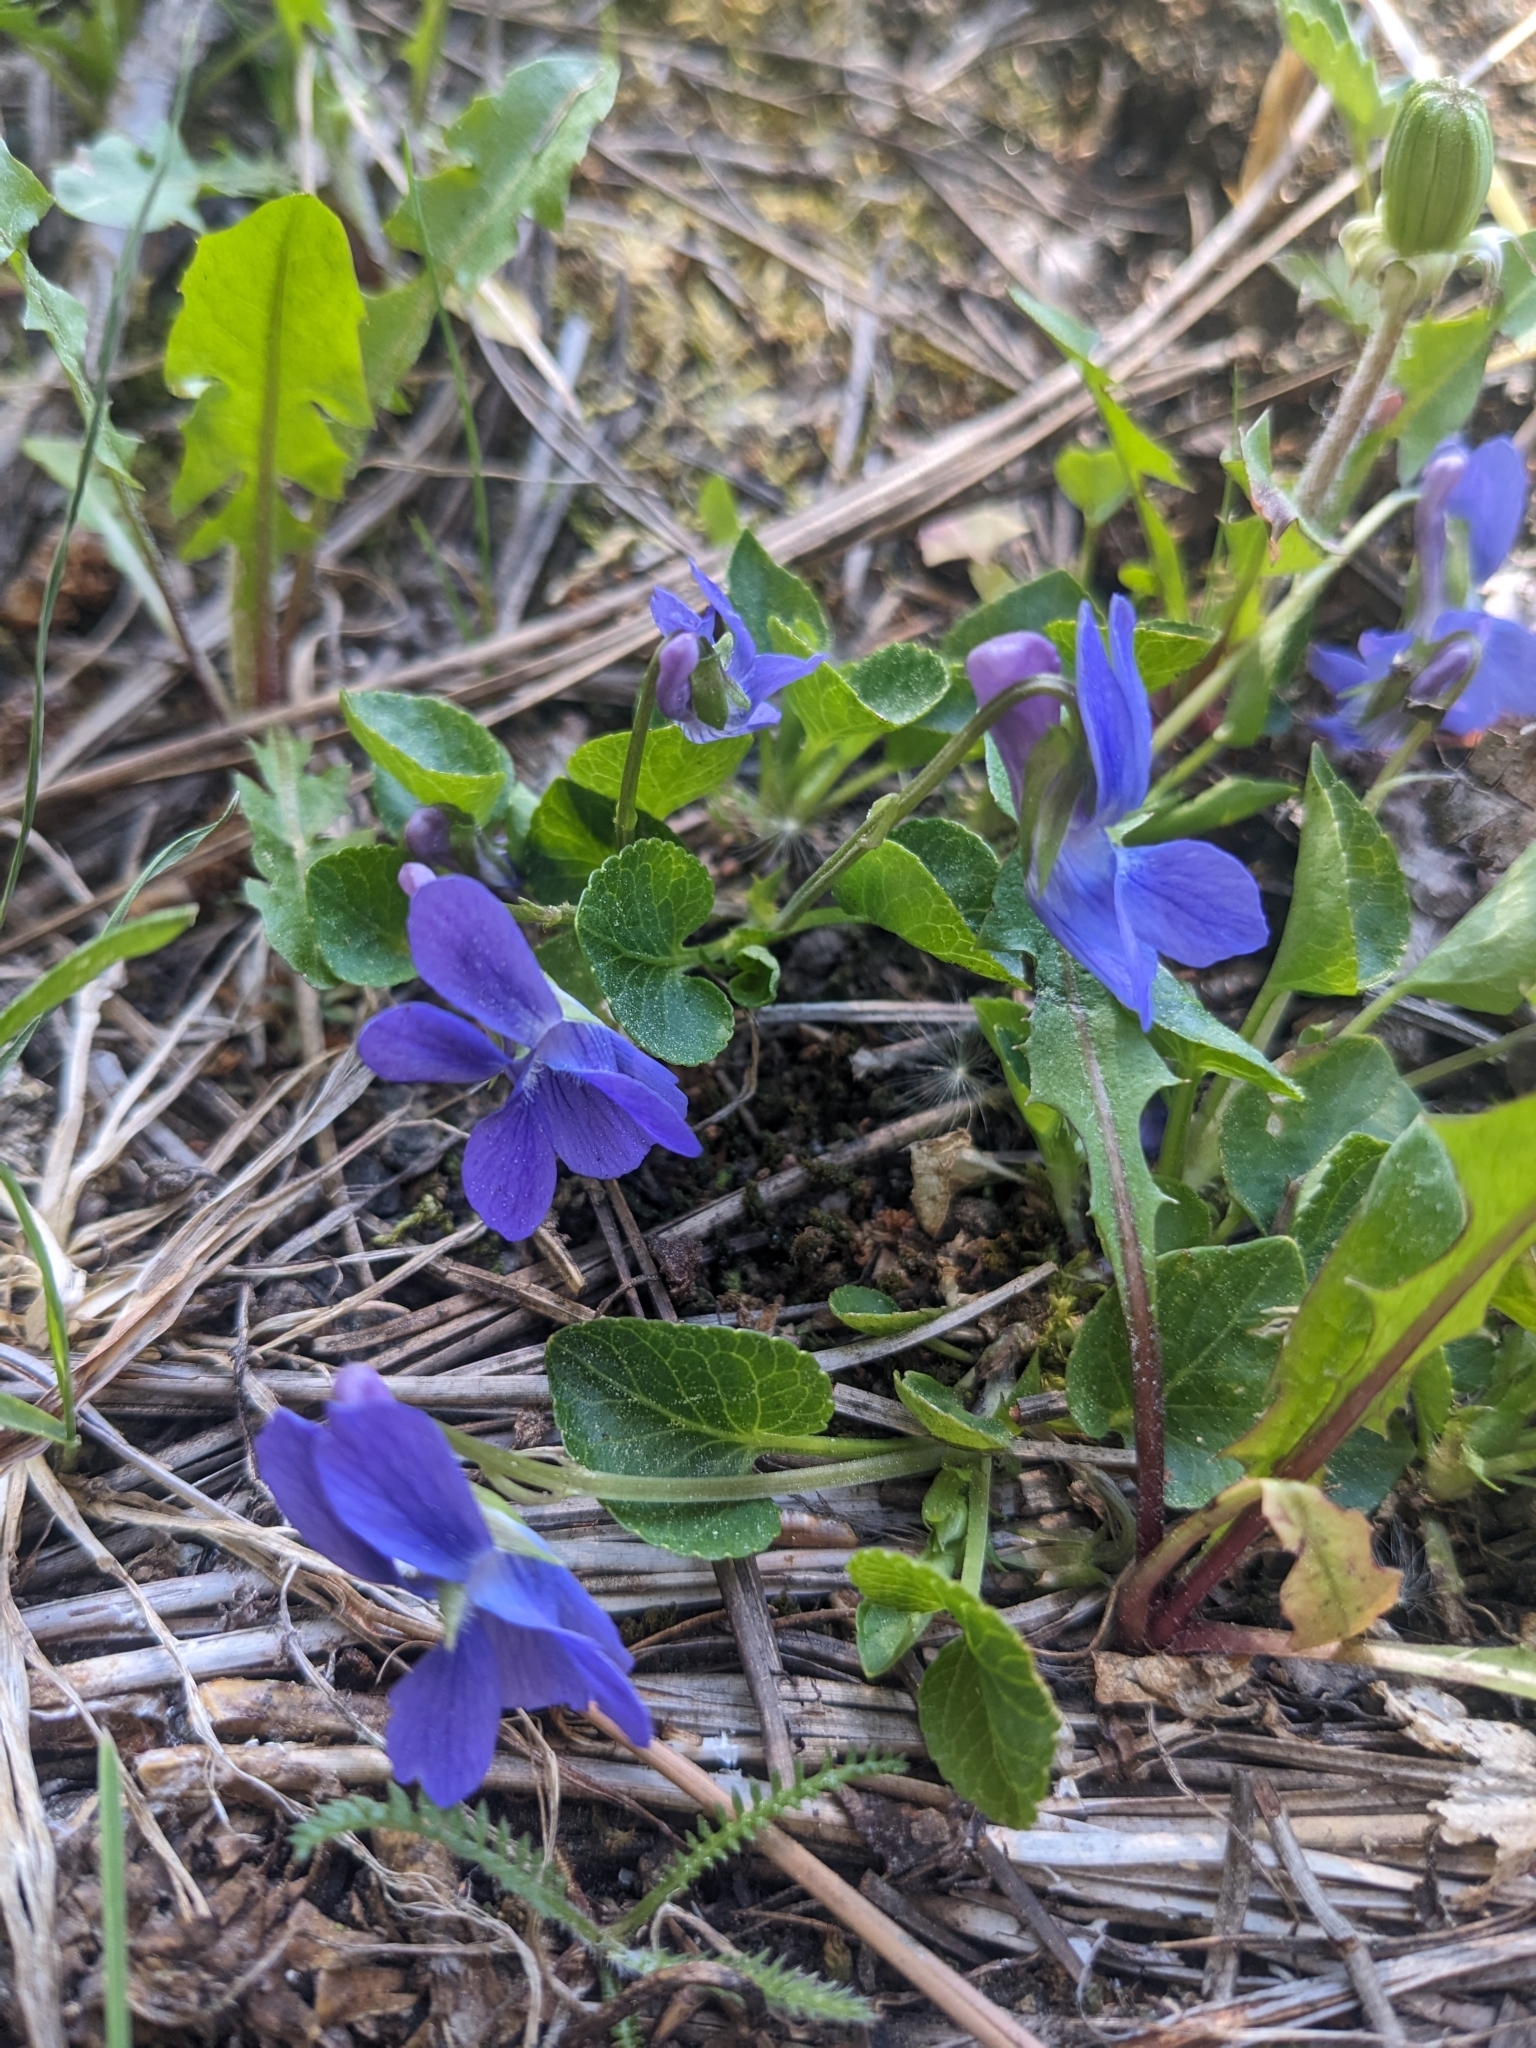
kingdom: Plantae
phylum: Tracheophyta
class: Magnoliopsida
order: Malpighiales
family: Violaceae
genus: Viola
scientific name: Viola adunca
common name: Sand violet
